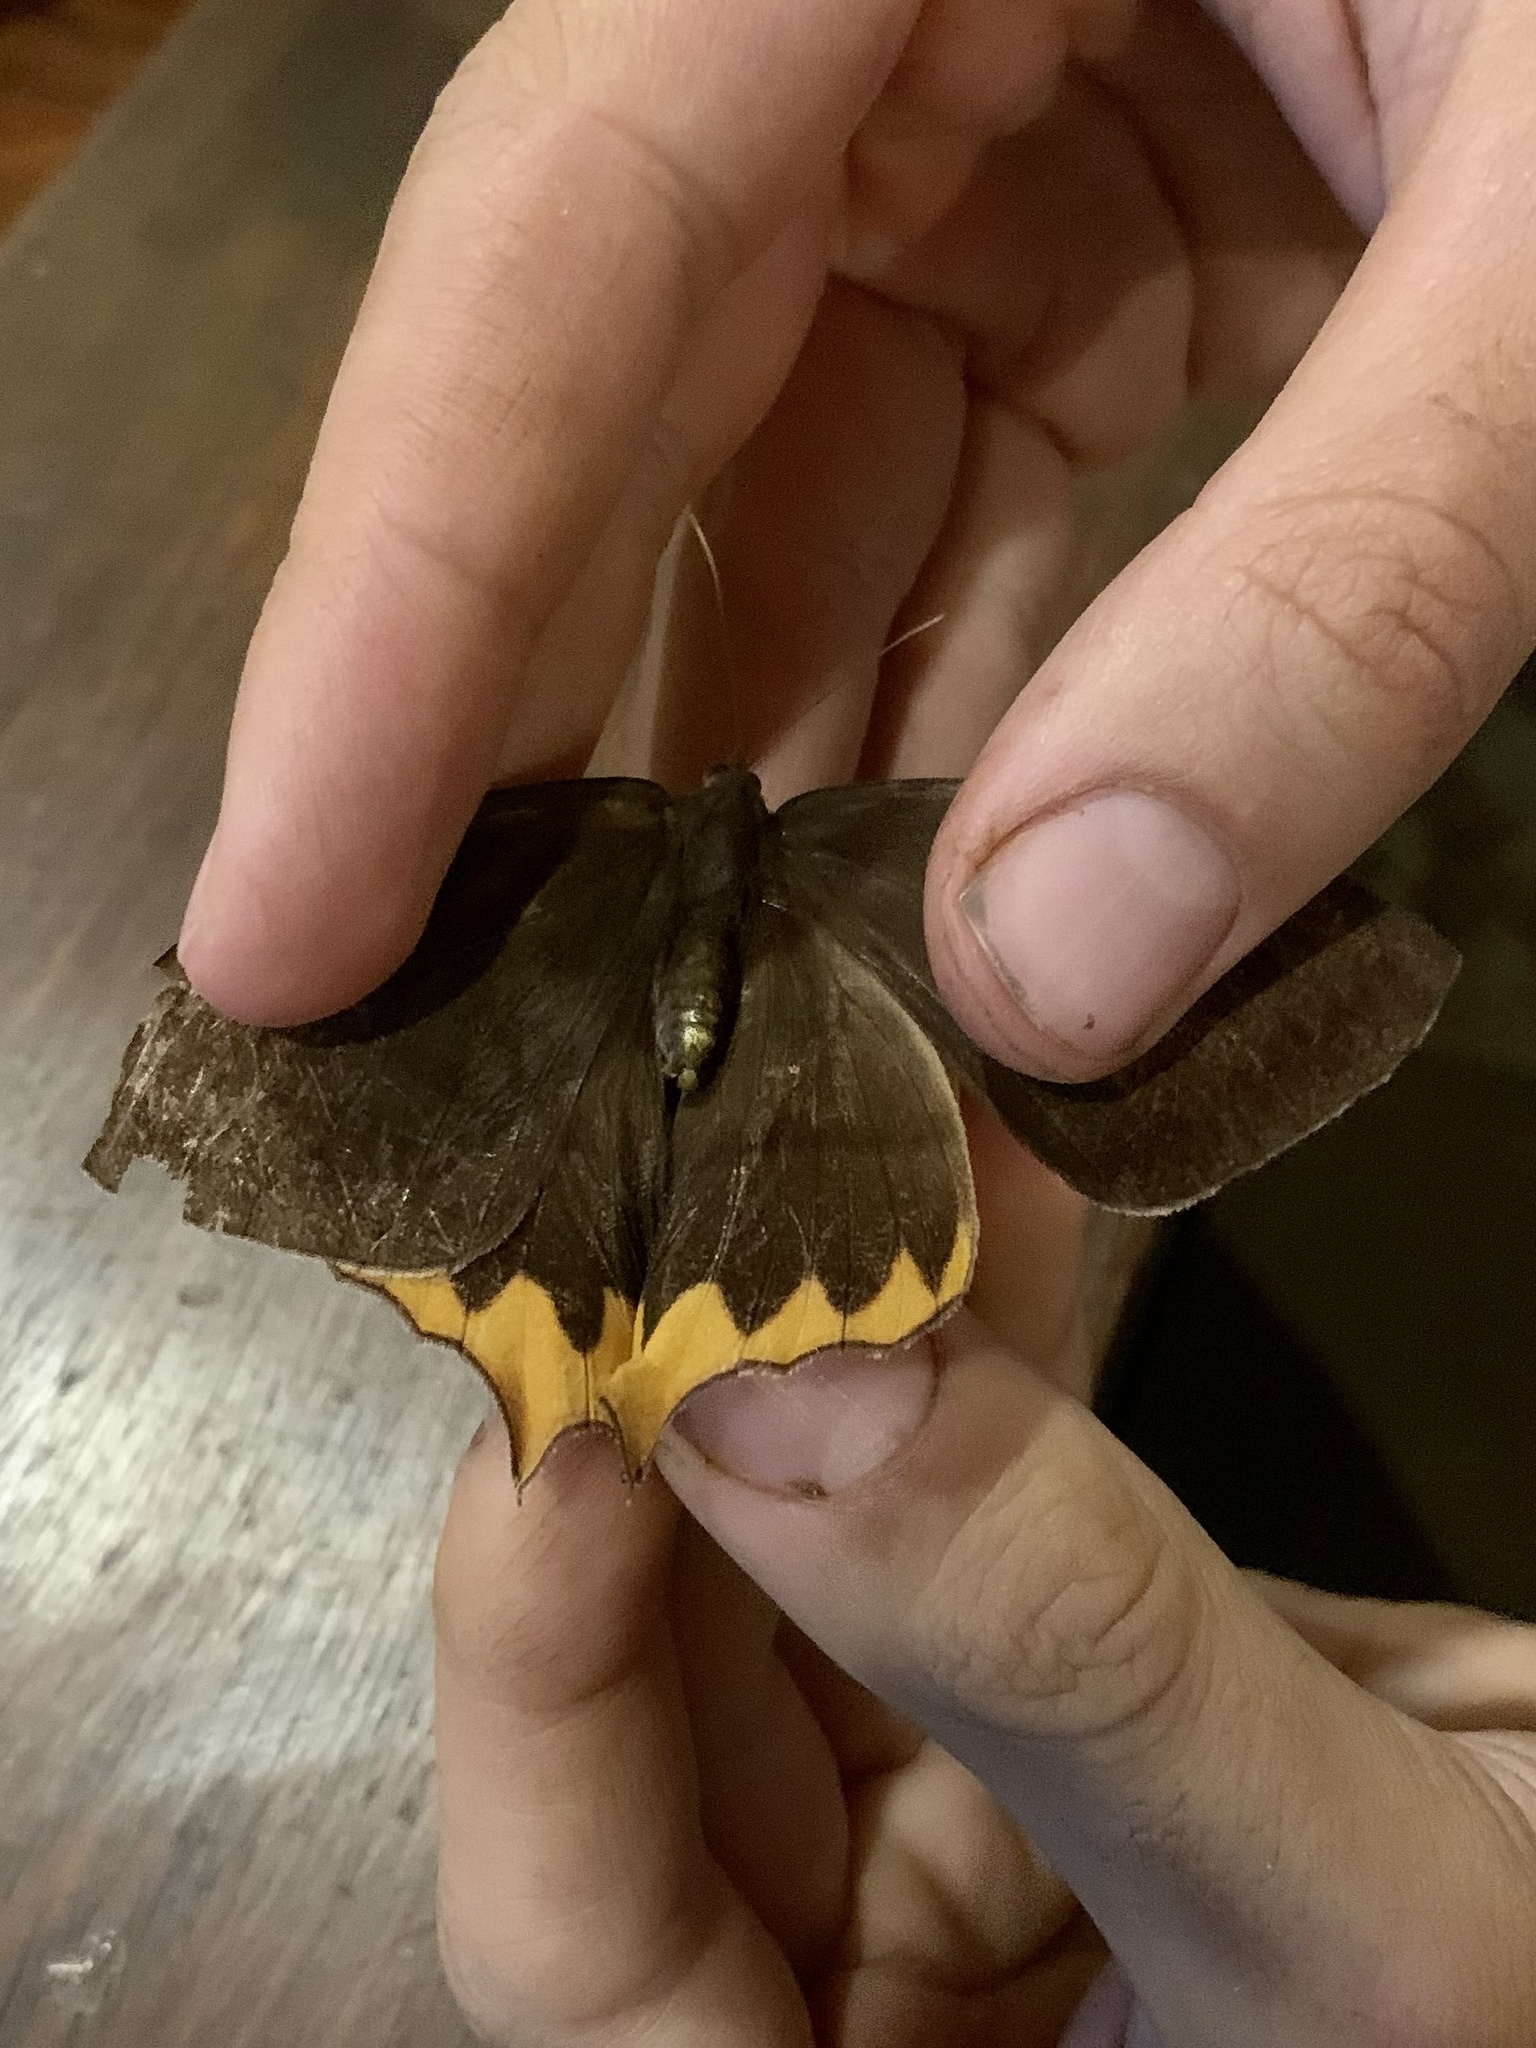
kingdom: Animalia
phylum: Arthropoda
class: Insecta
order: Lepidoptera
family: Nymphalidae
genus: Taygetis
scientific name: Taygetis chrysogone
